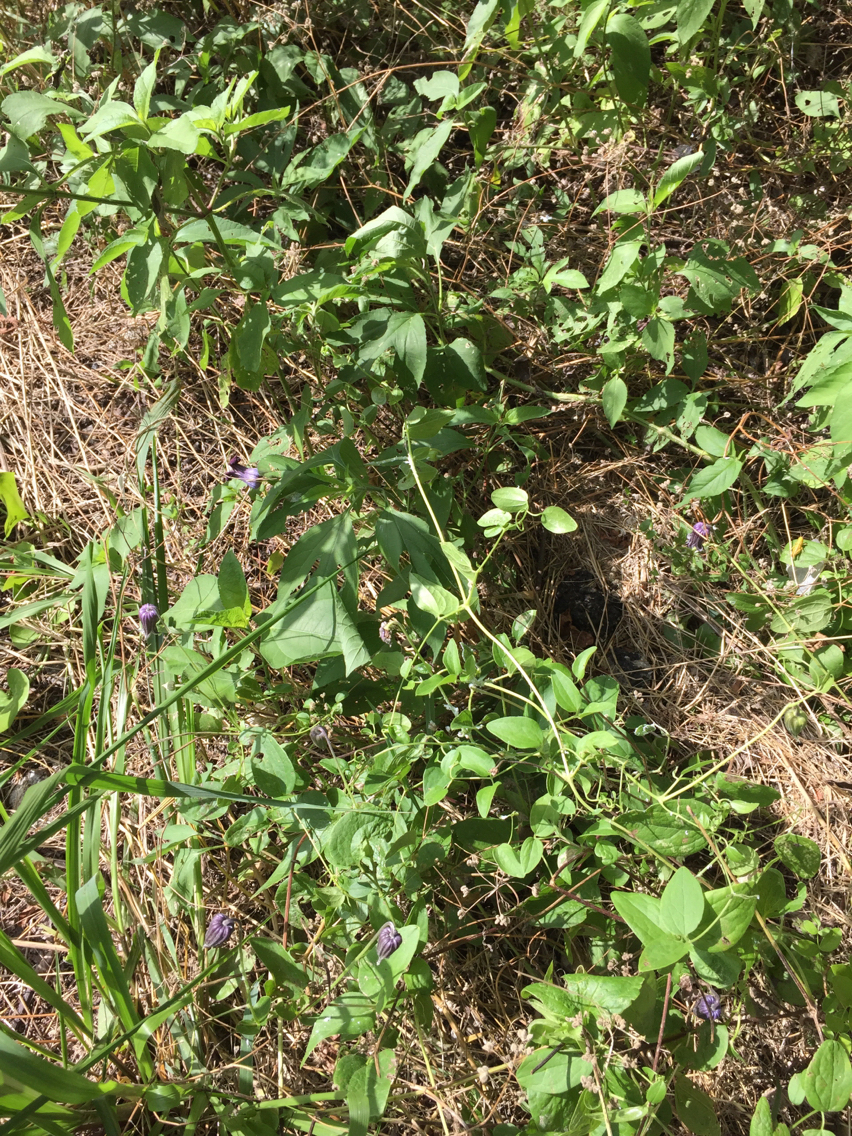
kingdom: Plantae
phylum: Tracheophyta
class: Magnoliopsida
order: Ranunculales
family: Ranunculaceae
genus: Clematis
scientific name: Clematis pitcheri
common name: Bellflower clematis
